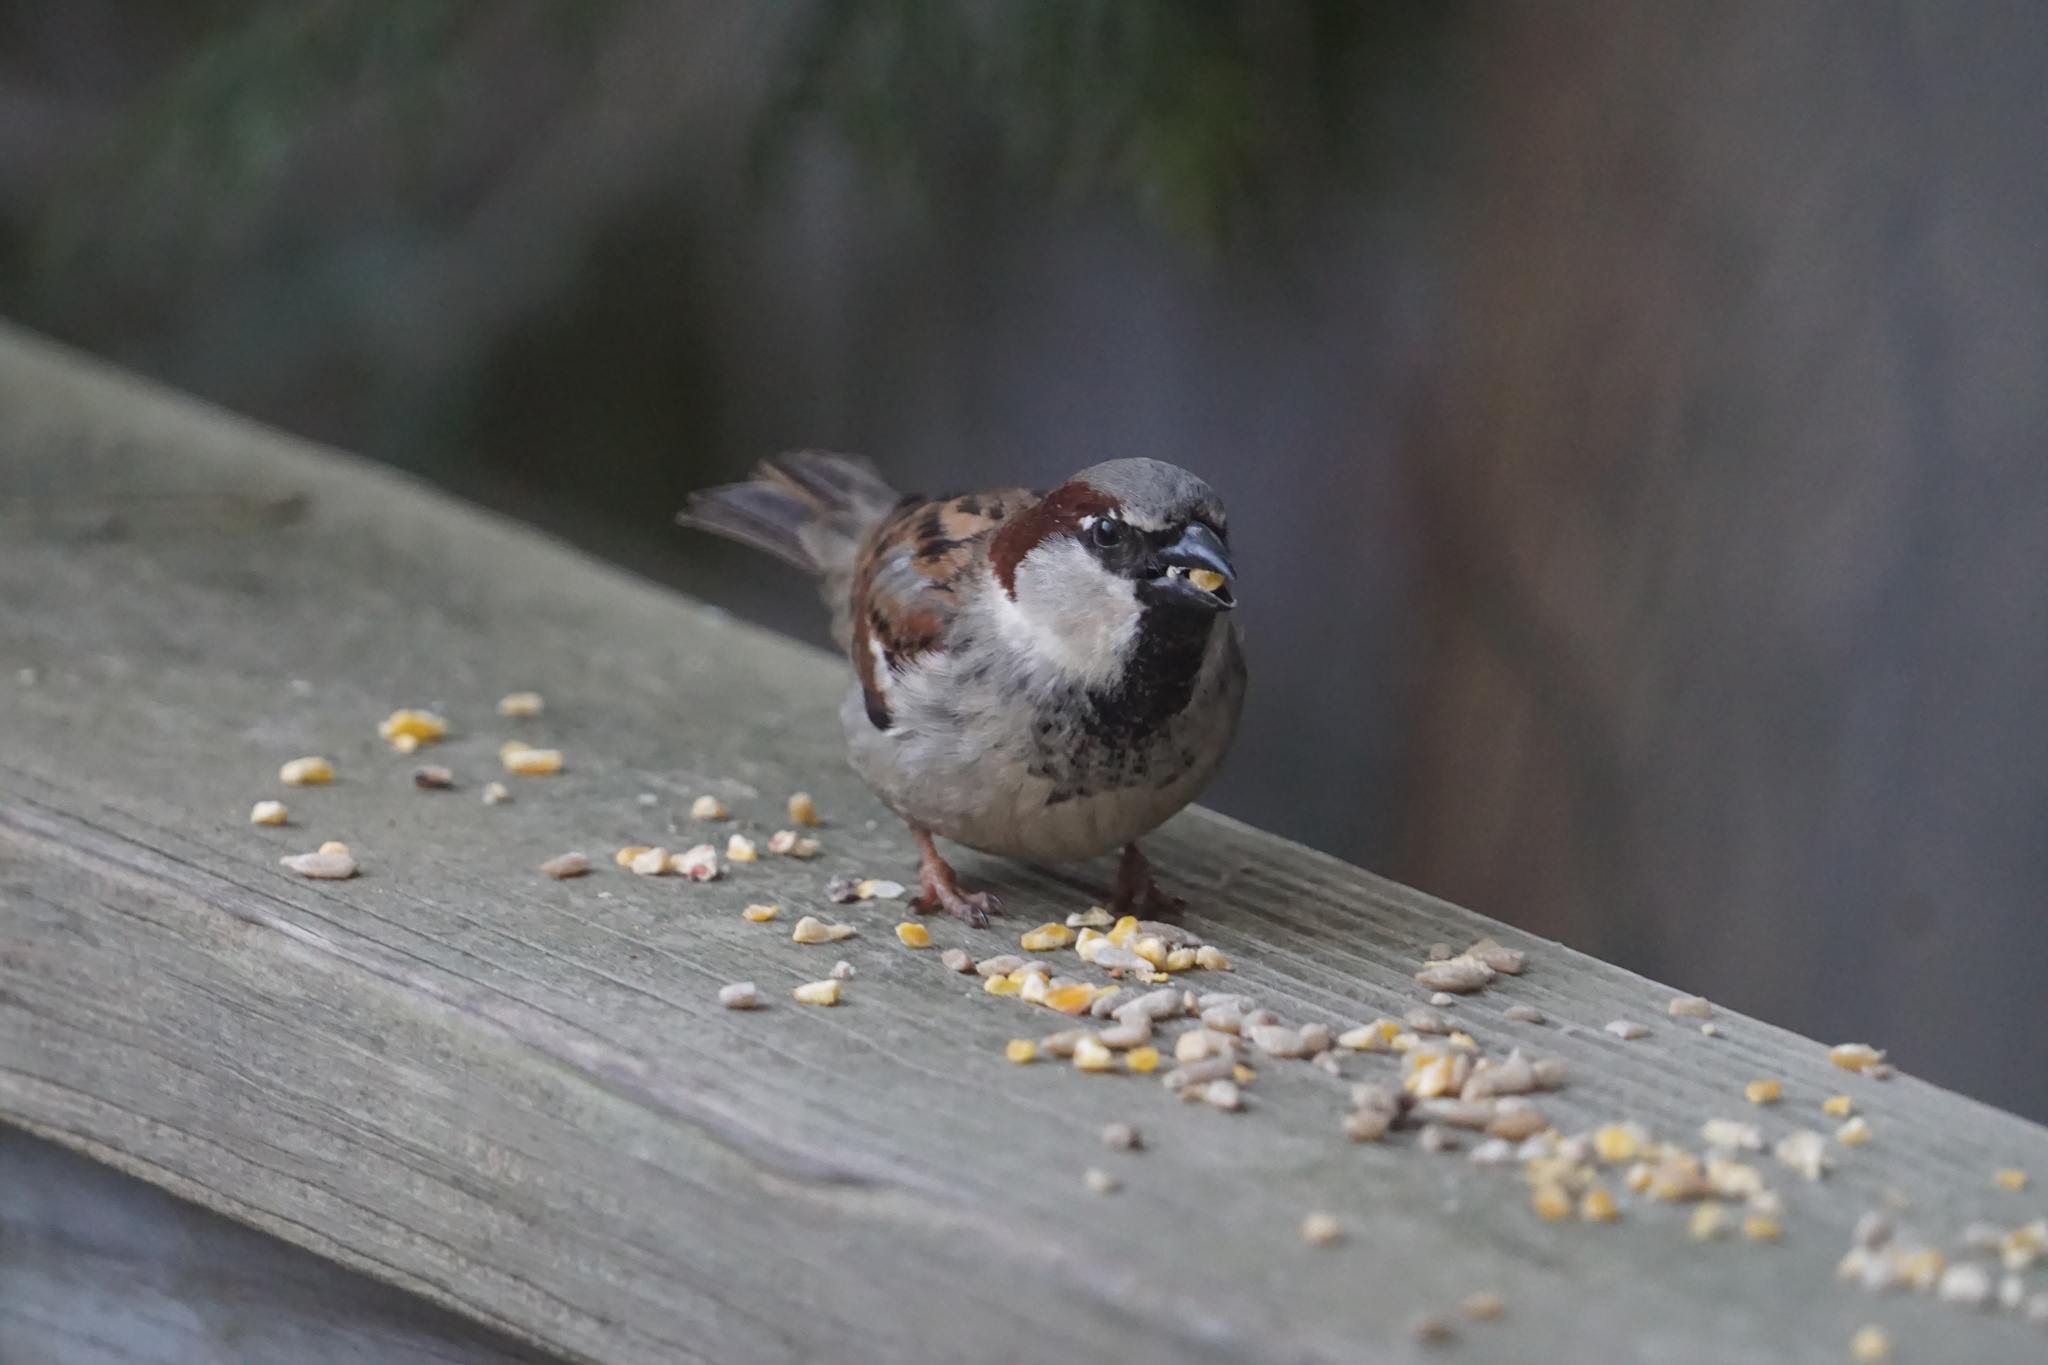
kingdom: Animalia
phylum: Chordata
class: Aves
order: Passeriformes
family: Passeridae
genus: Passer
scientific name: Passer domesticus
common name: House sparrow
